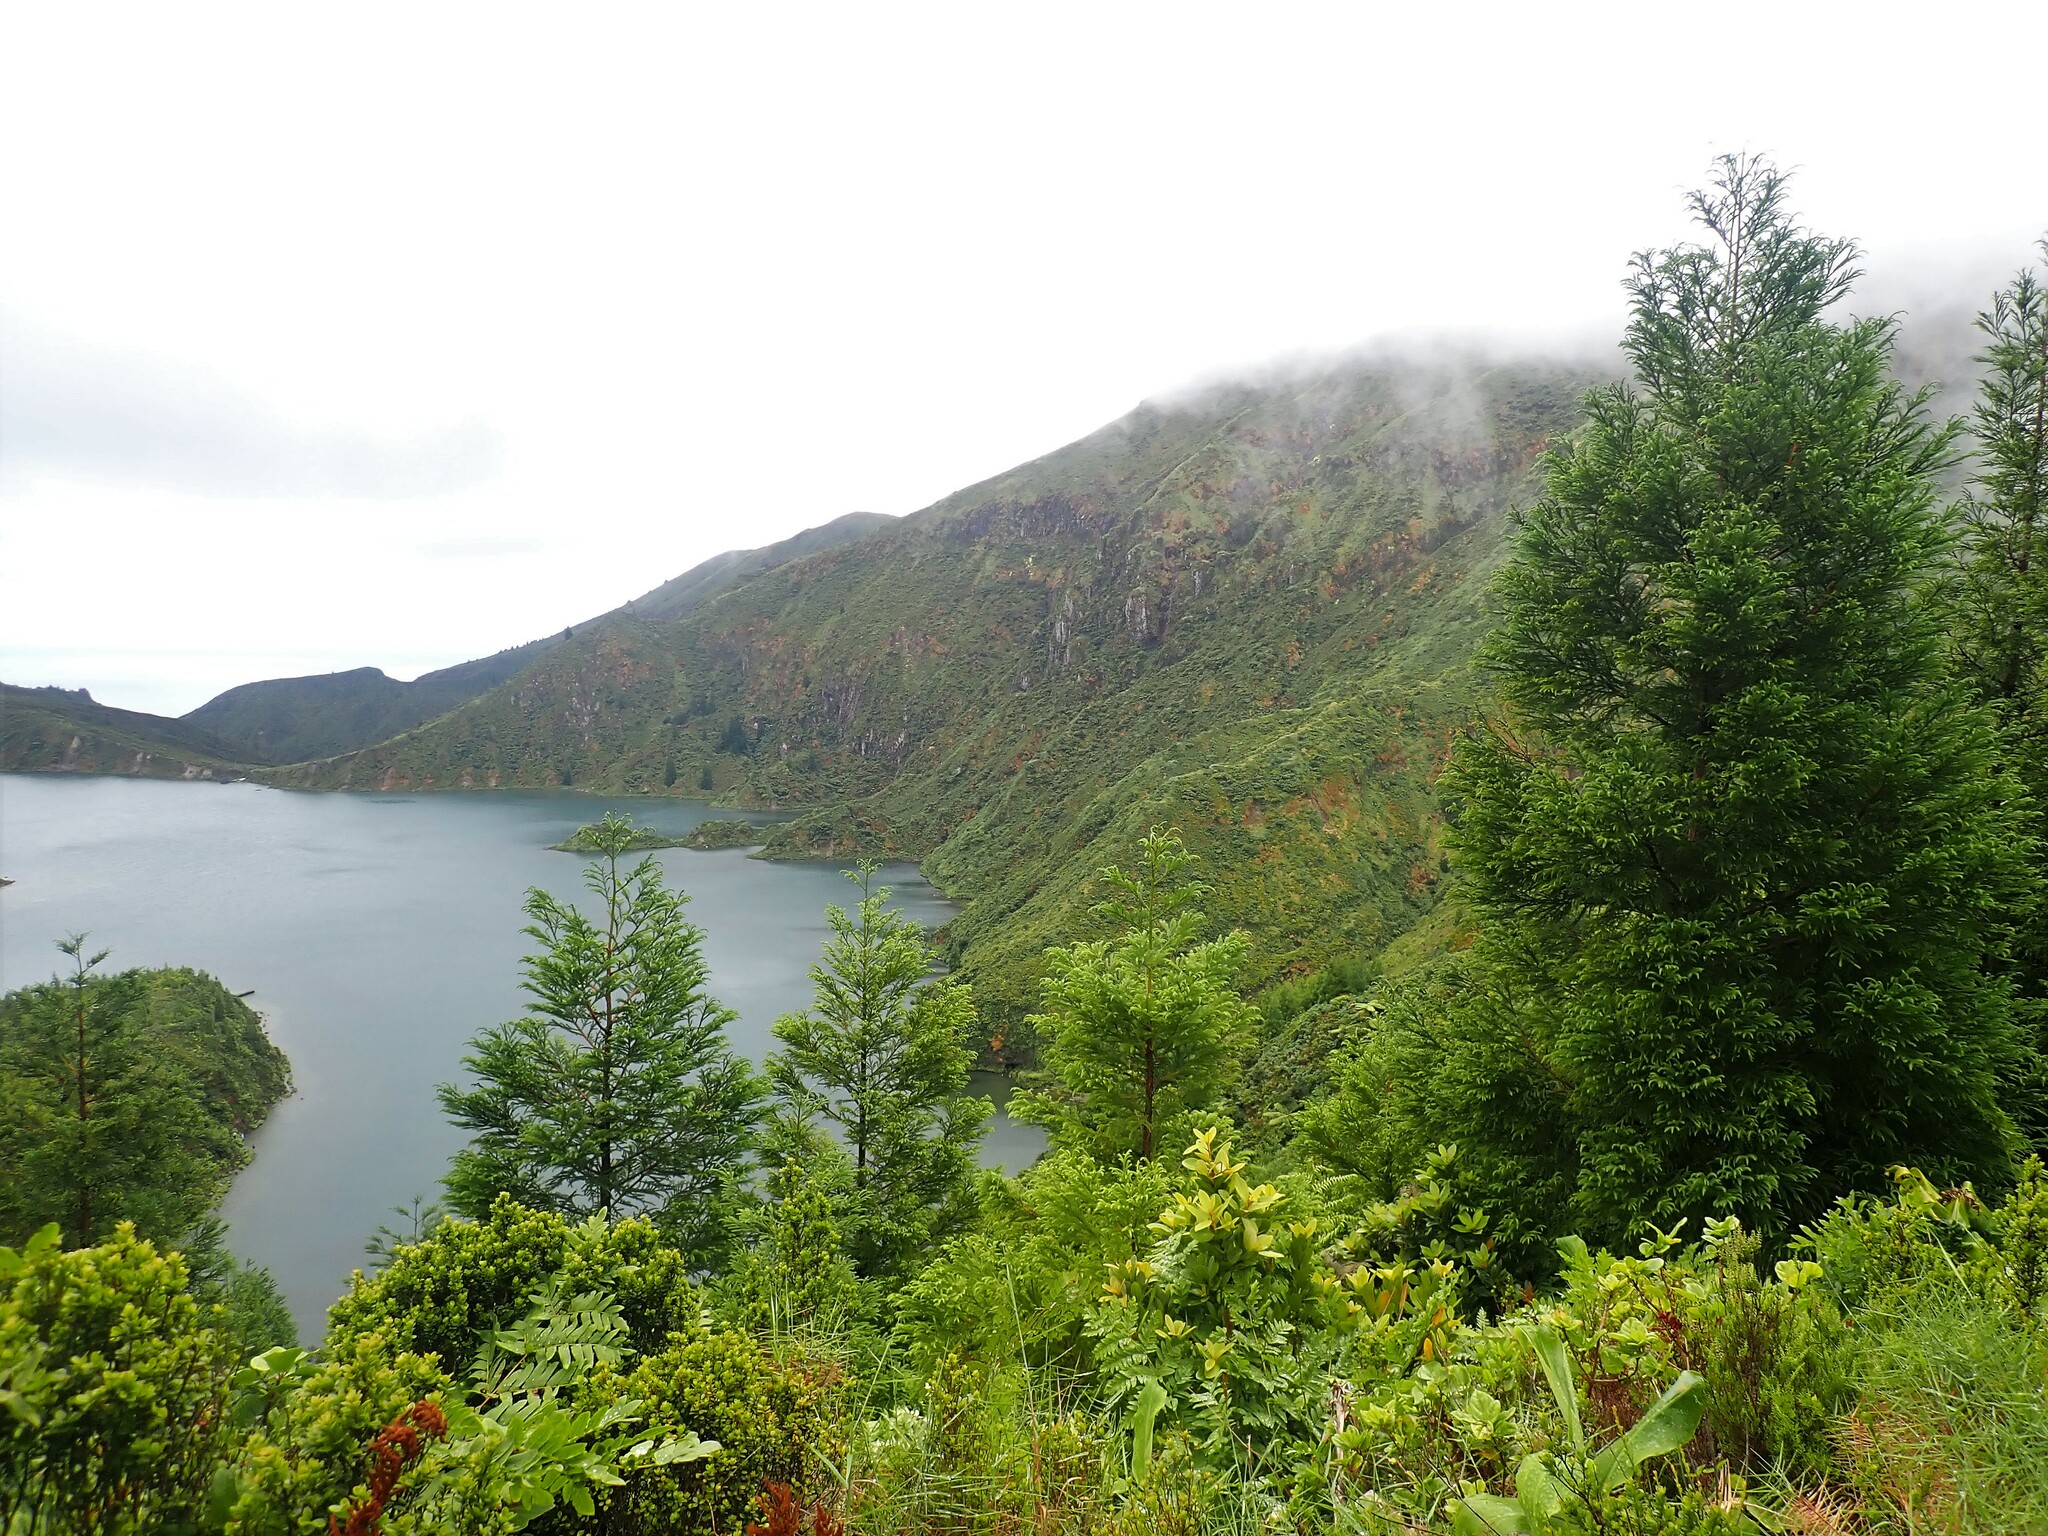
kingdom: Plantae
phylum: Tracheophyta
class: Pinopsida
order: Pinales
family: Cupressaceae
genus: Cryptomeria
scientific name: Cryptomeria japonica
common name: Japanese cedar
